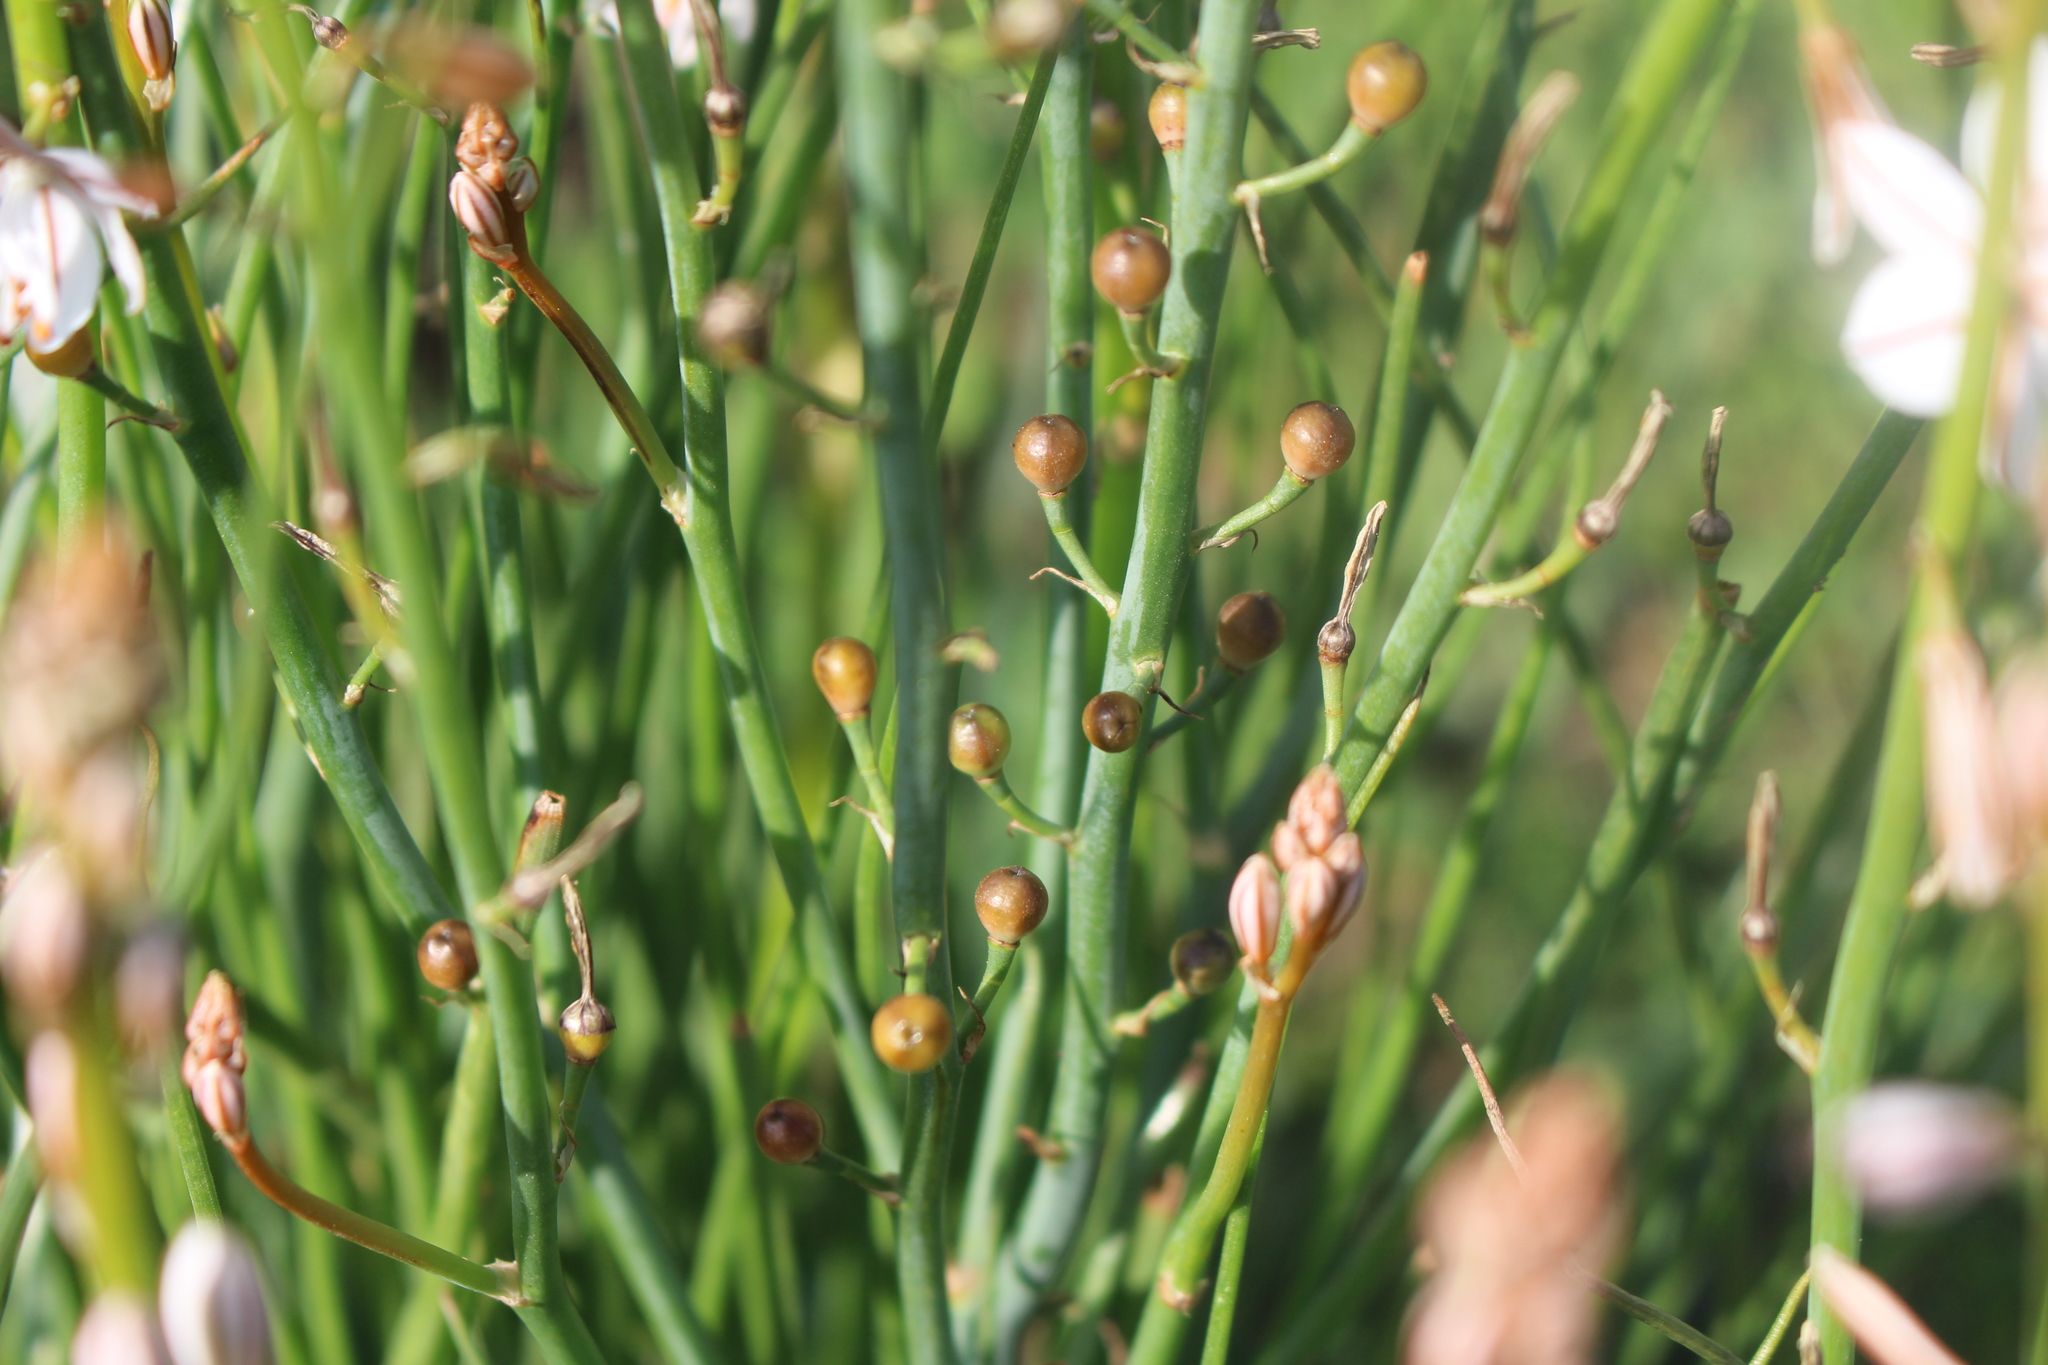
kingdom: Plantae
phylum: Tracheophyta
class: Liliopsida
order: Asparagales
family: Asphodelaceae
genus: Asphodelus
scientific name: Asphodelus fistulosus
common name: Onionweed
